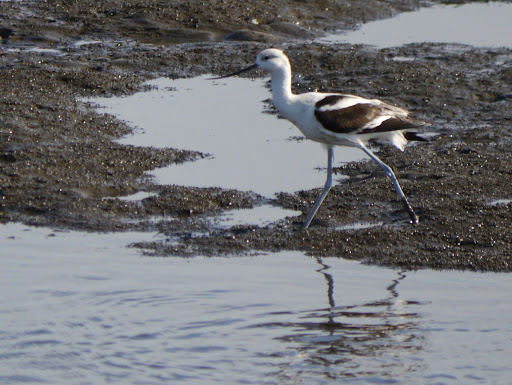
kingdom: Animalia
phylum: Chordata
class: Aves
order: Charadriiformes
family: Recurvirostridae
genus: Recurvirostra
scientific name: Recurvirostra americana
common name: American avocet
